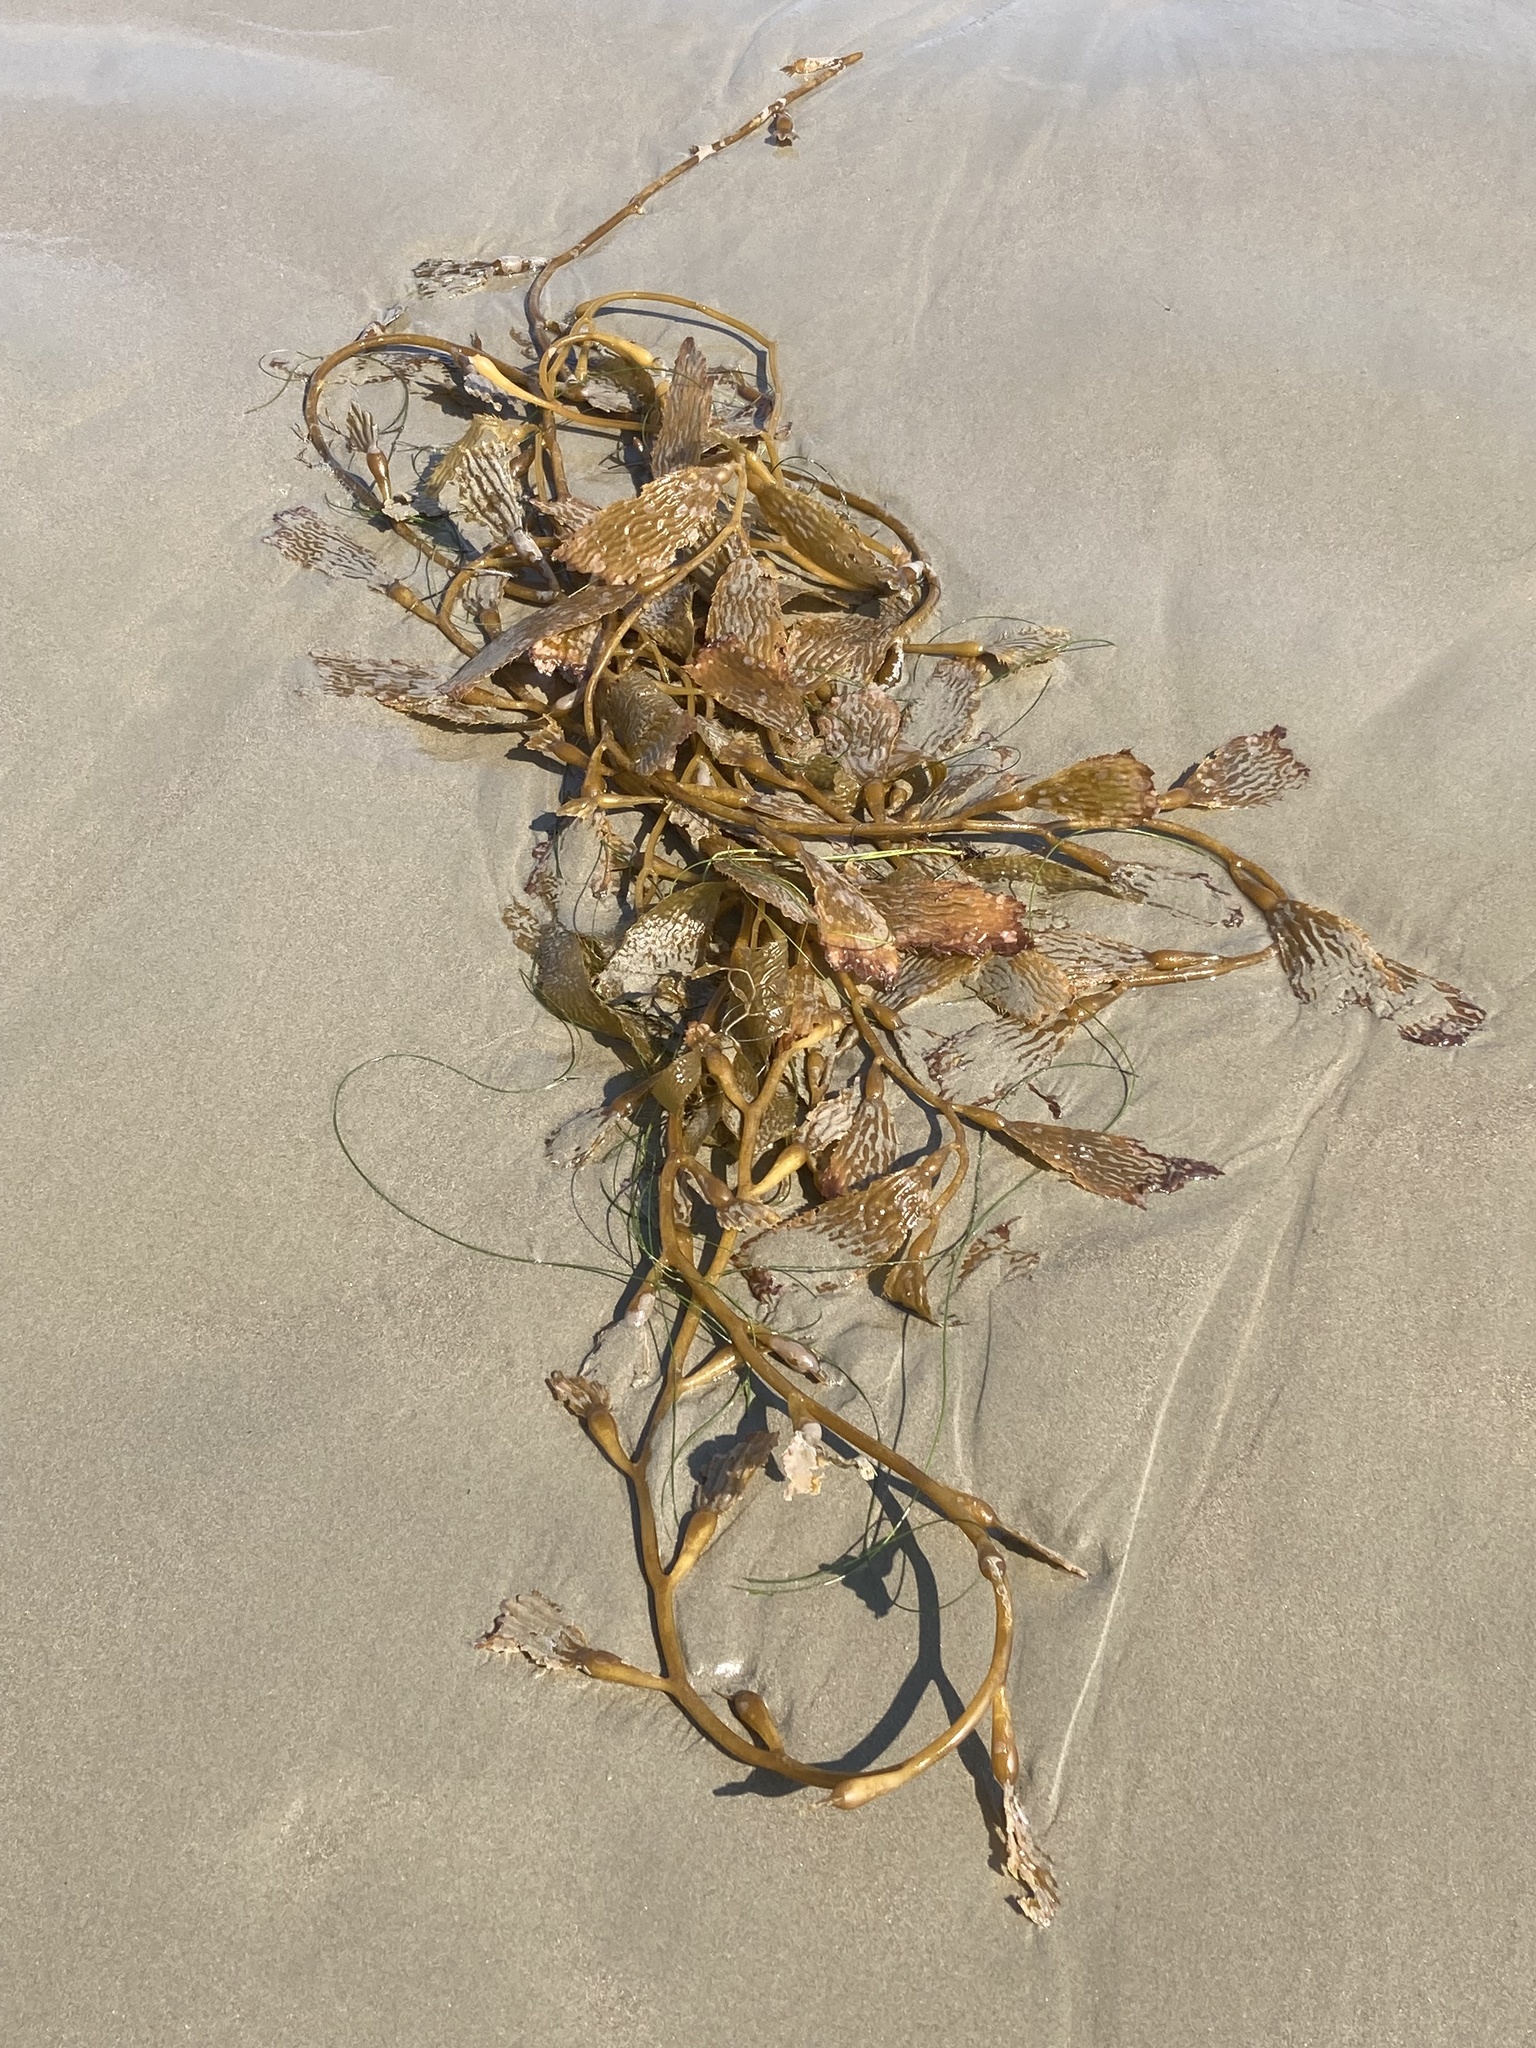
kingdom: Chromista
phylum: Ochrophyta
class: Phaeophyceae
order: Laminariales
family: Laminariaceae
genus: Macrocystis
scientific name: Macrocystis pyrifera
